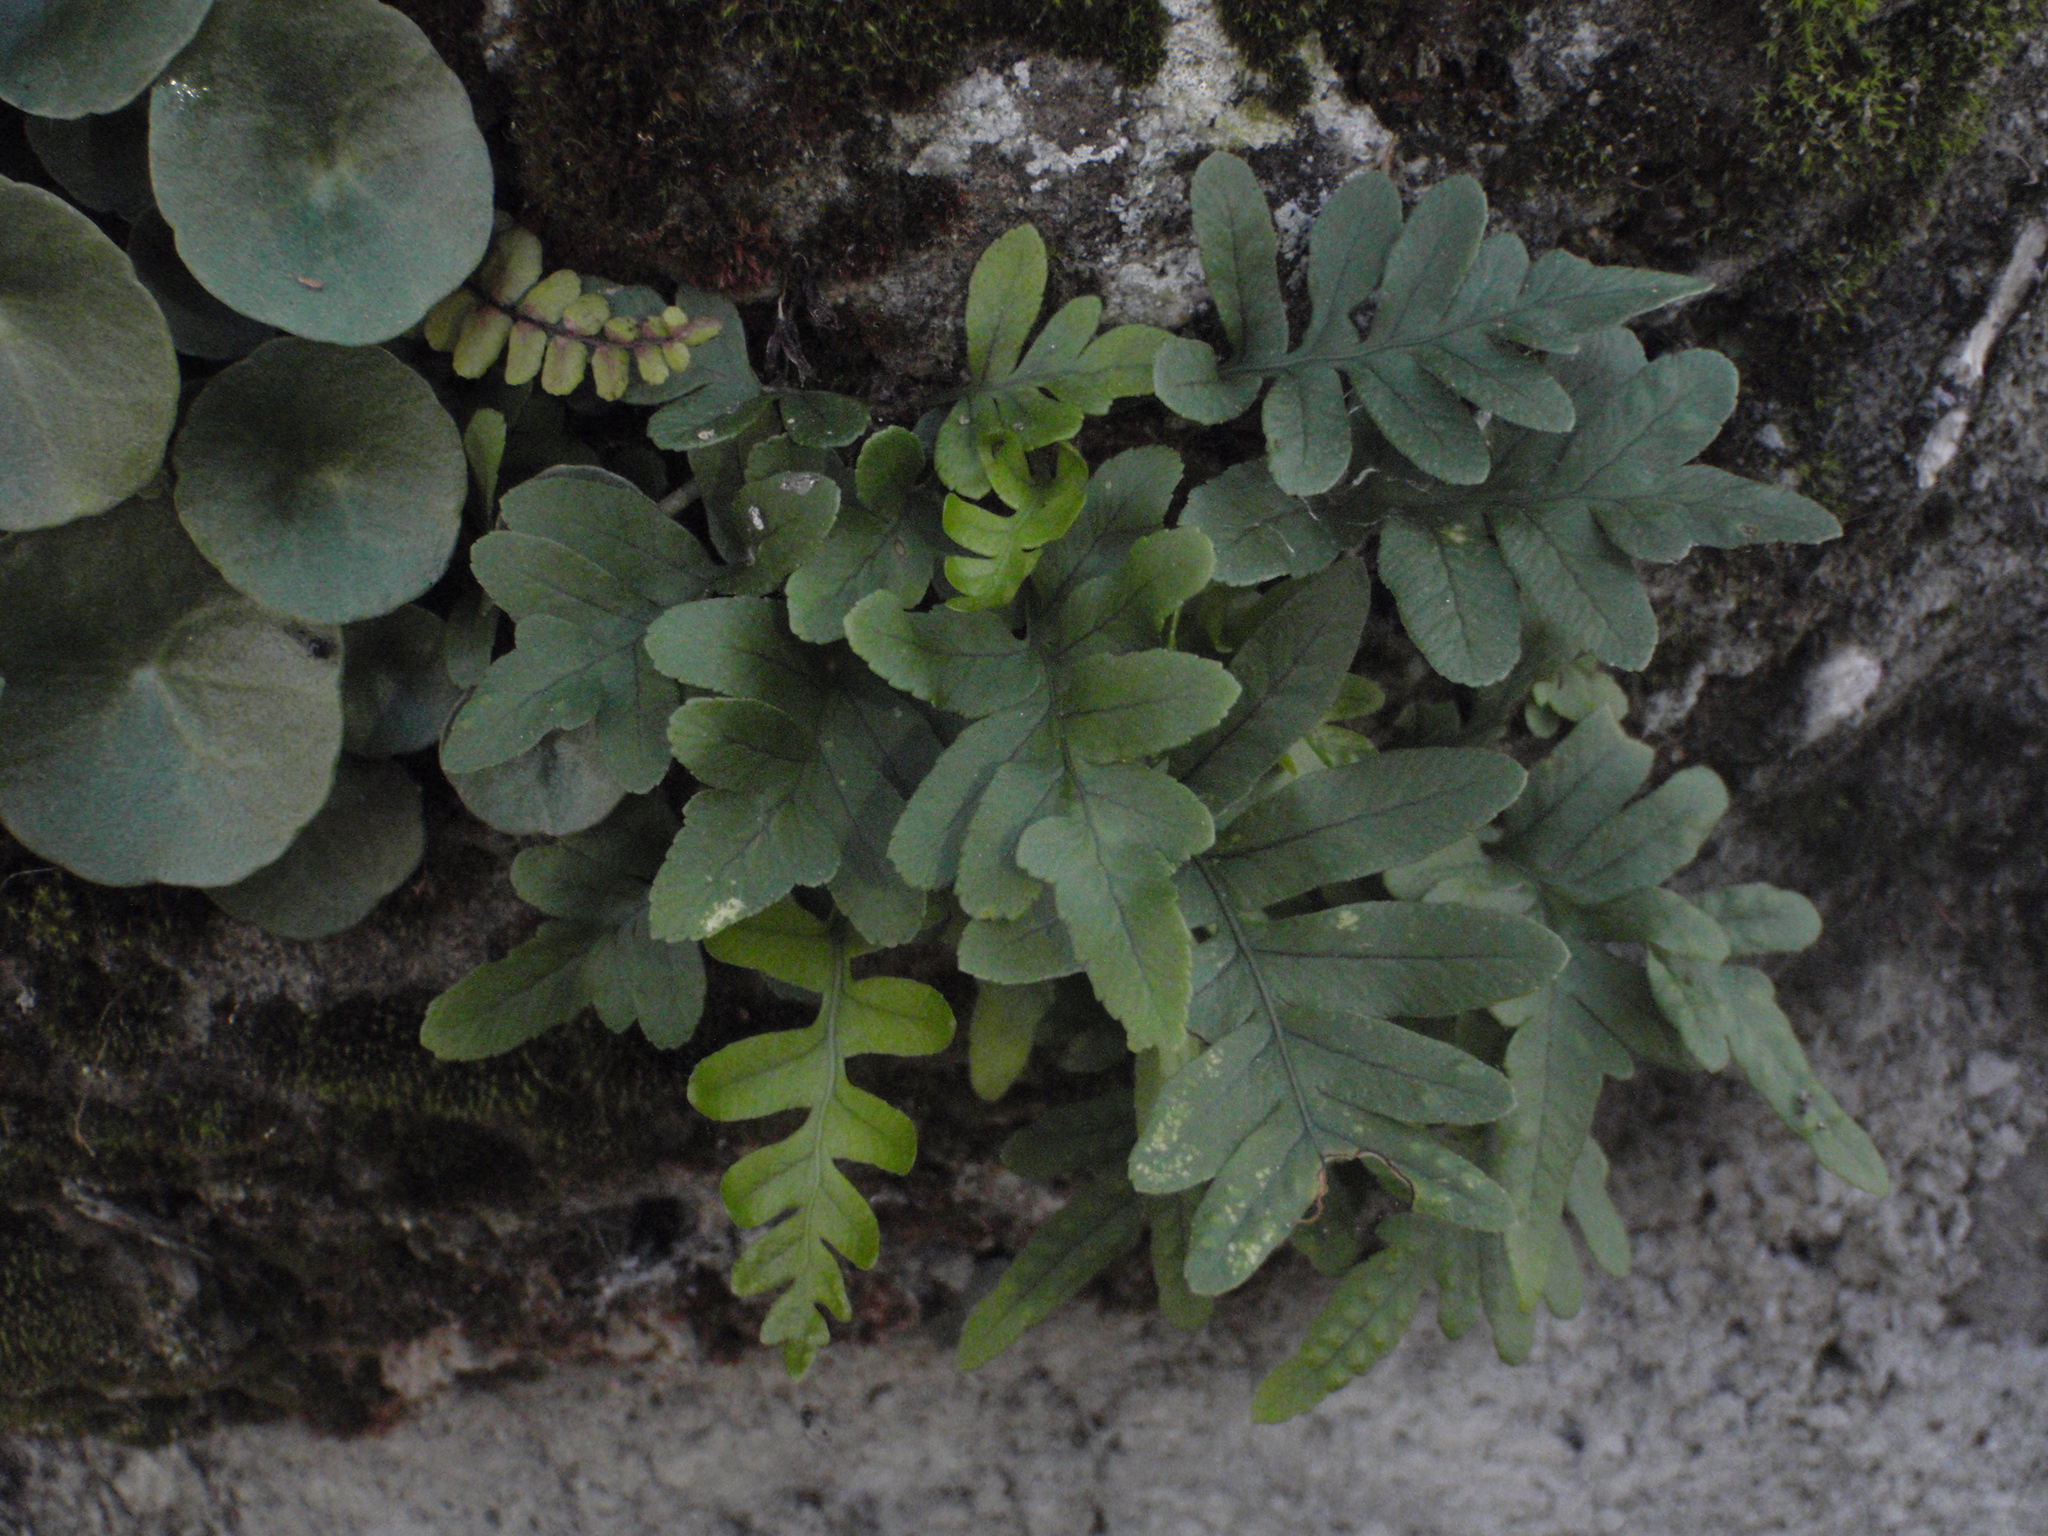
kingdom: Plantae
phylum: Tracheophyta
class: Polypodiopsida
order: Polypodiales
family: Polypodiaceae
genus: Polypodium
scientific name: Polypodium cambricum
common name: Southern polypody
